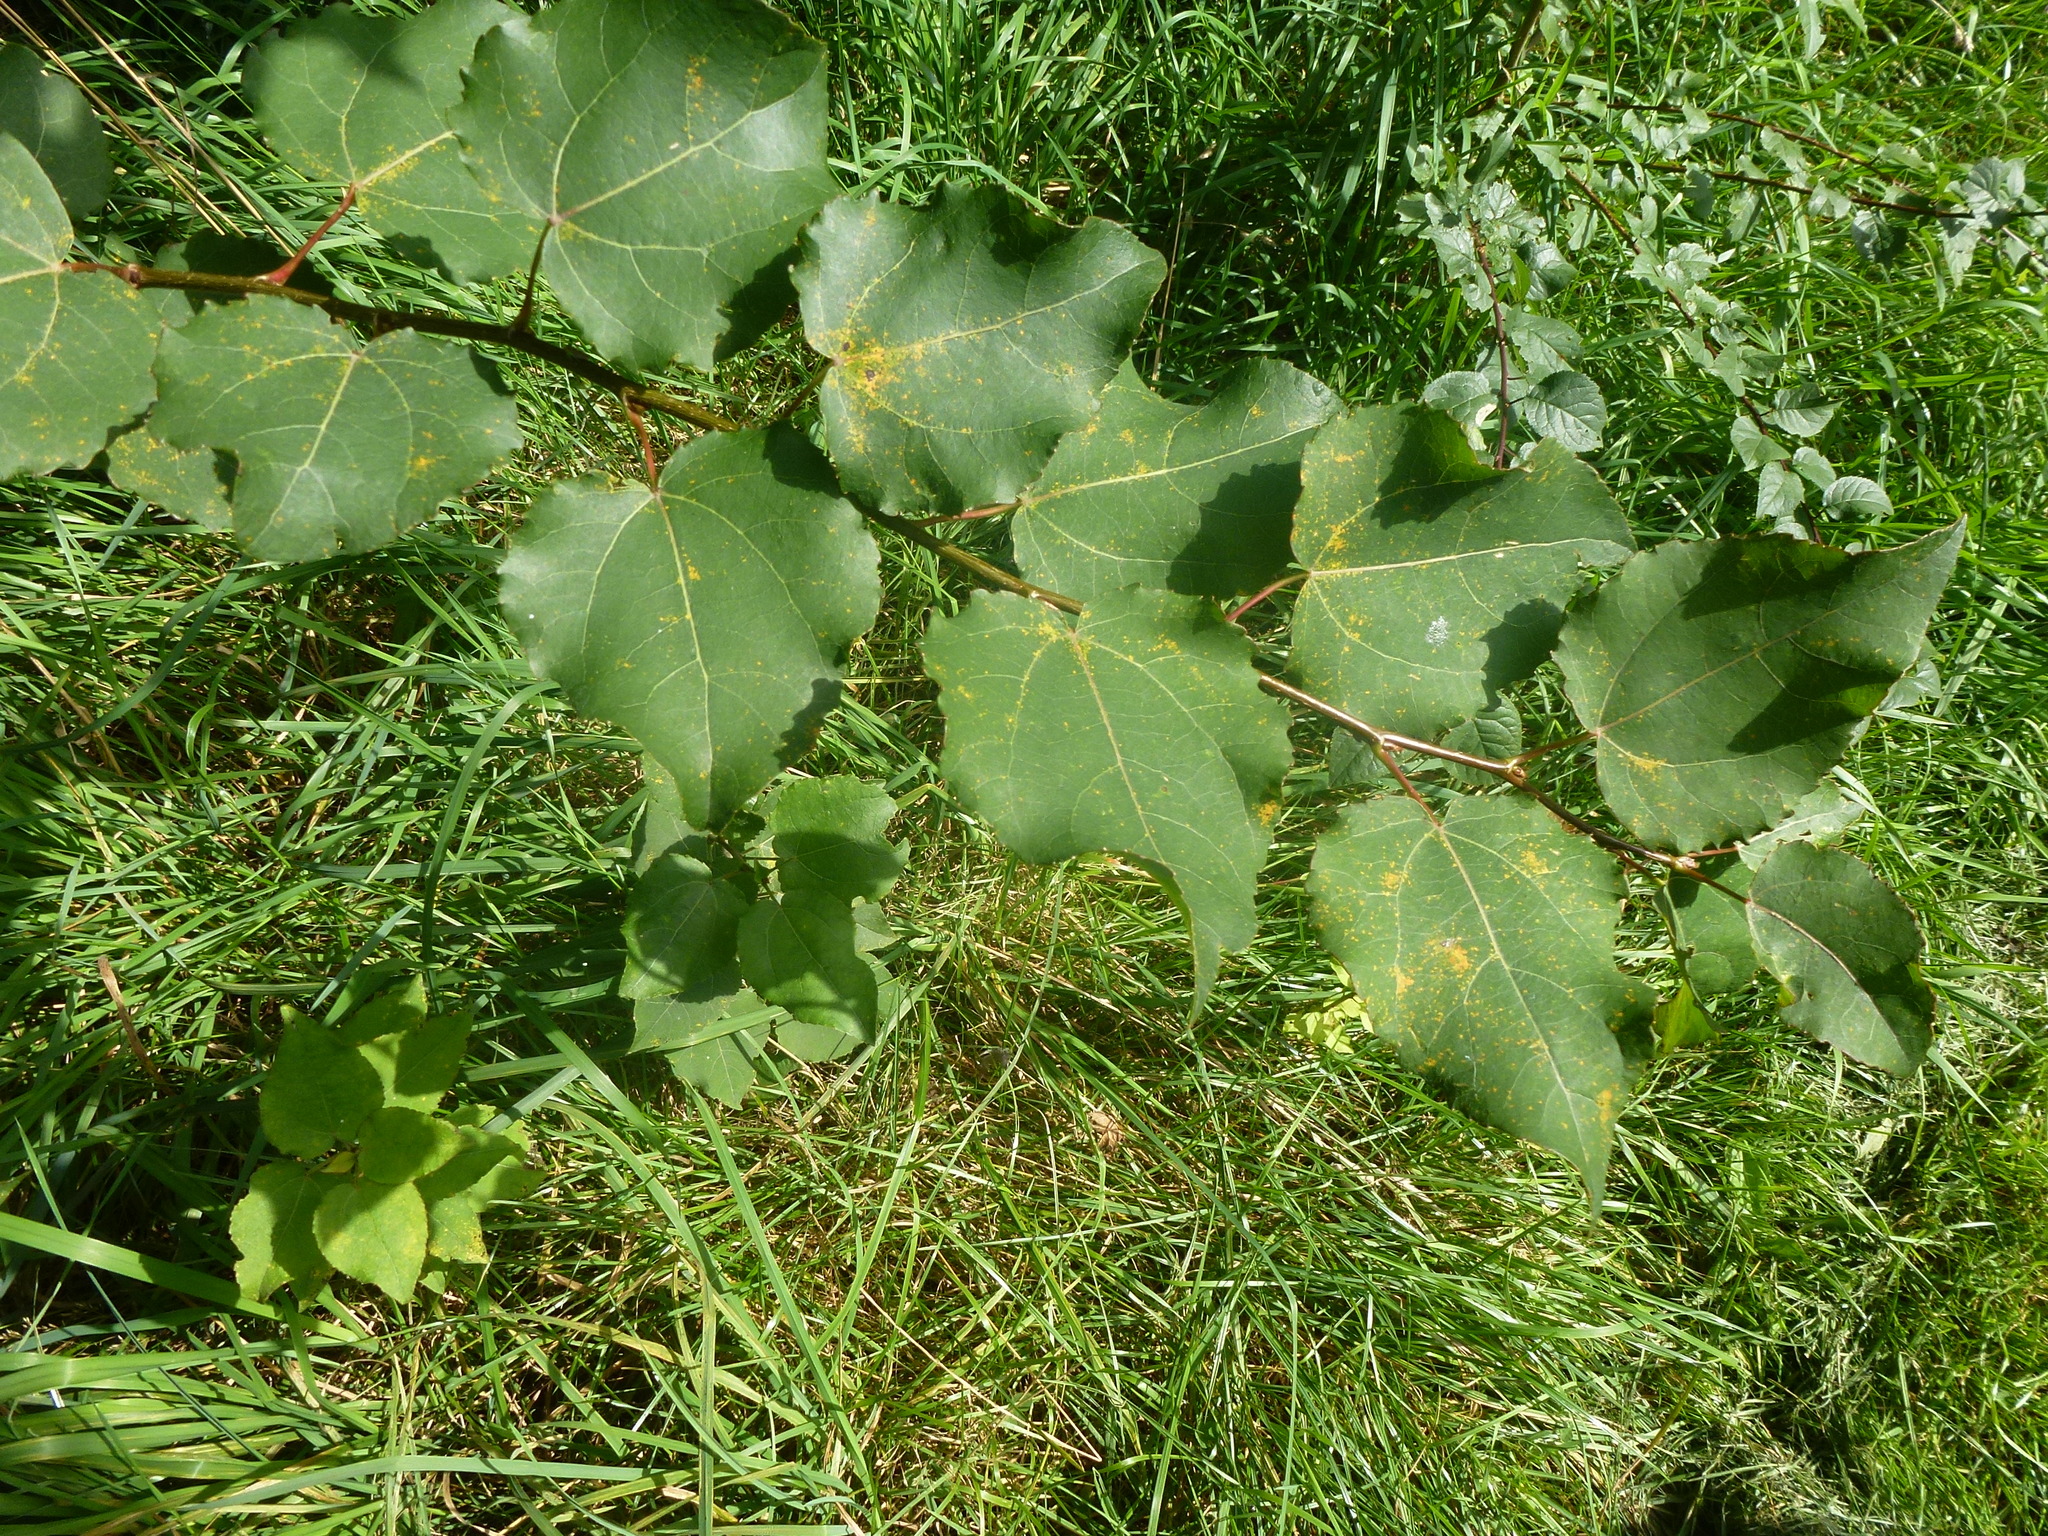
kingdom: Plantae
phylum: Tracheophyta
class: Magnoliopsida
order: Malpighiales
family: Salicaceae
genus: Populus
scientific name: Populus tremula
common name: European aspen
